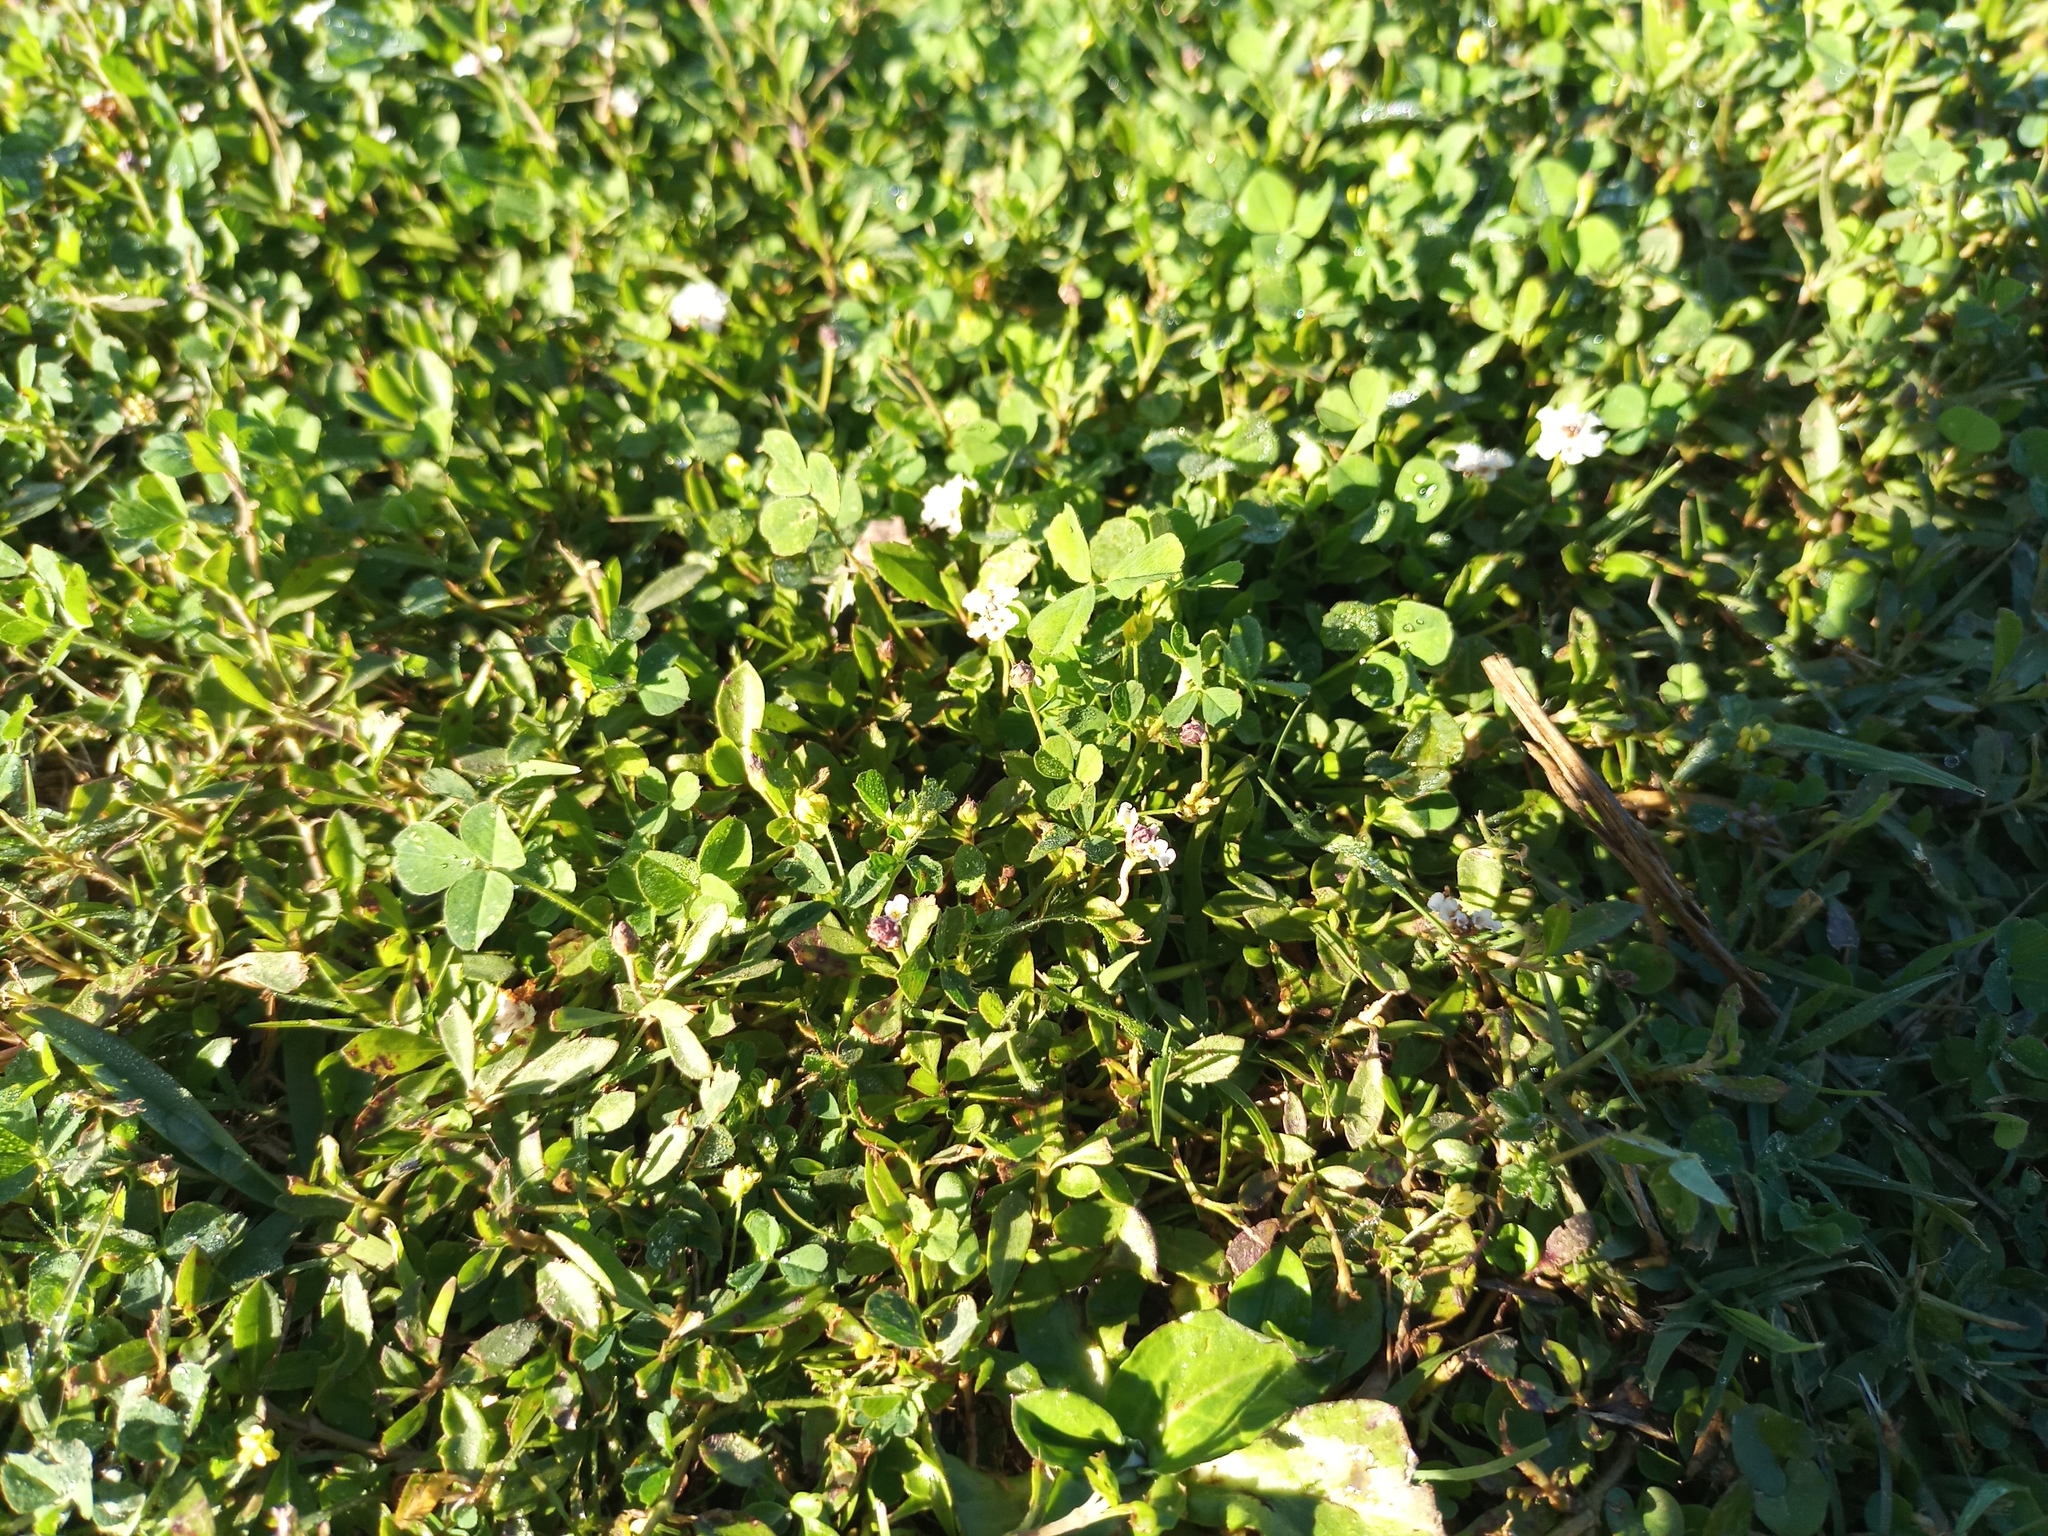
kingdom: Plantae
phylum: Tracheophyta
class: Magnoliopsida
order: Lamiales
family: Verbenaceae
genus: Phyla
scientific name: Phyla nodiflora
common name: Frogfruit
